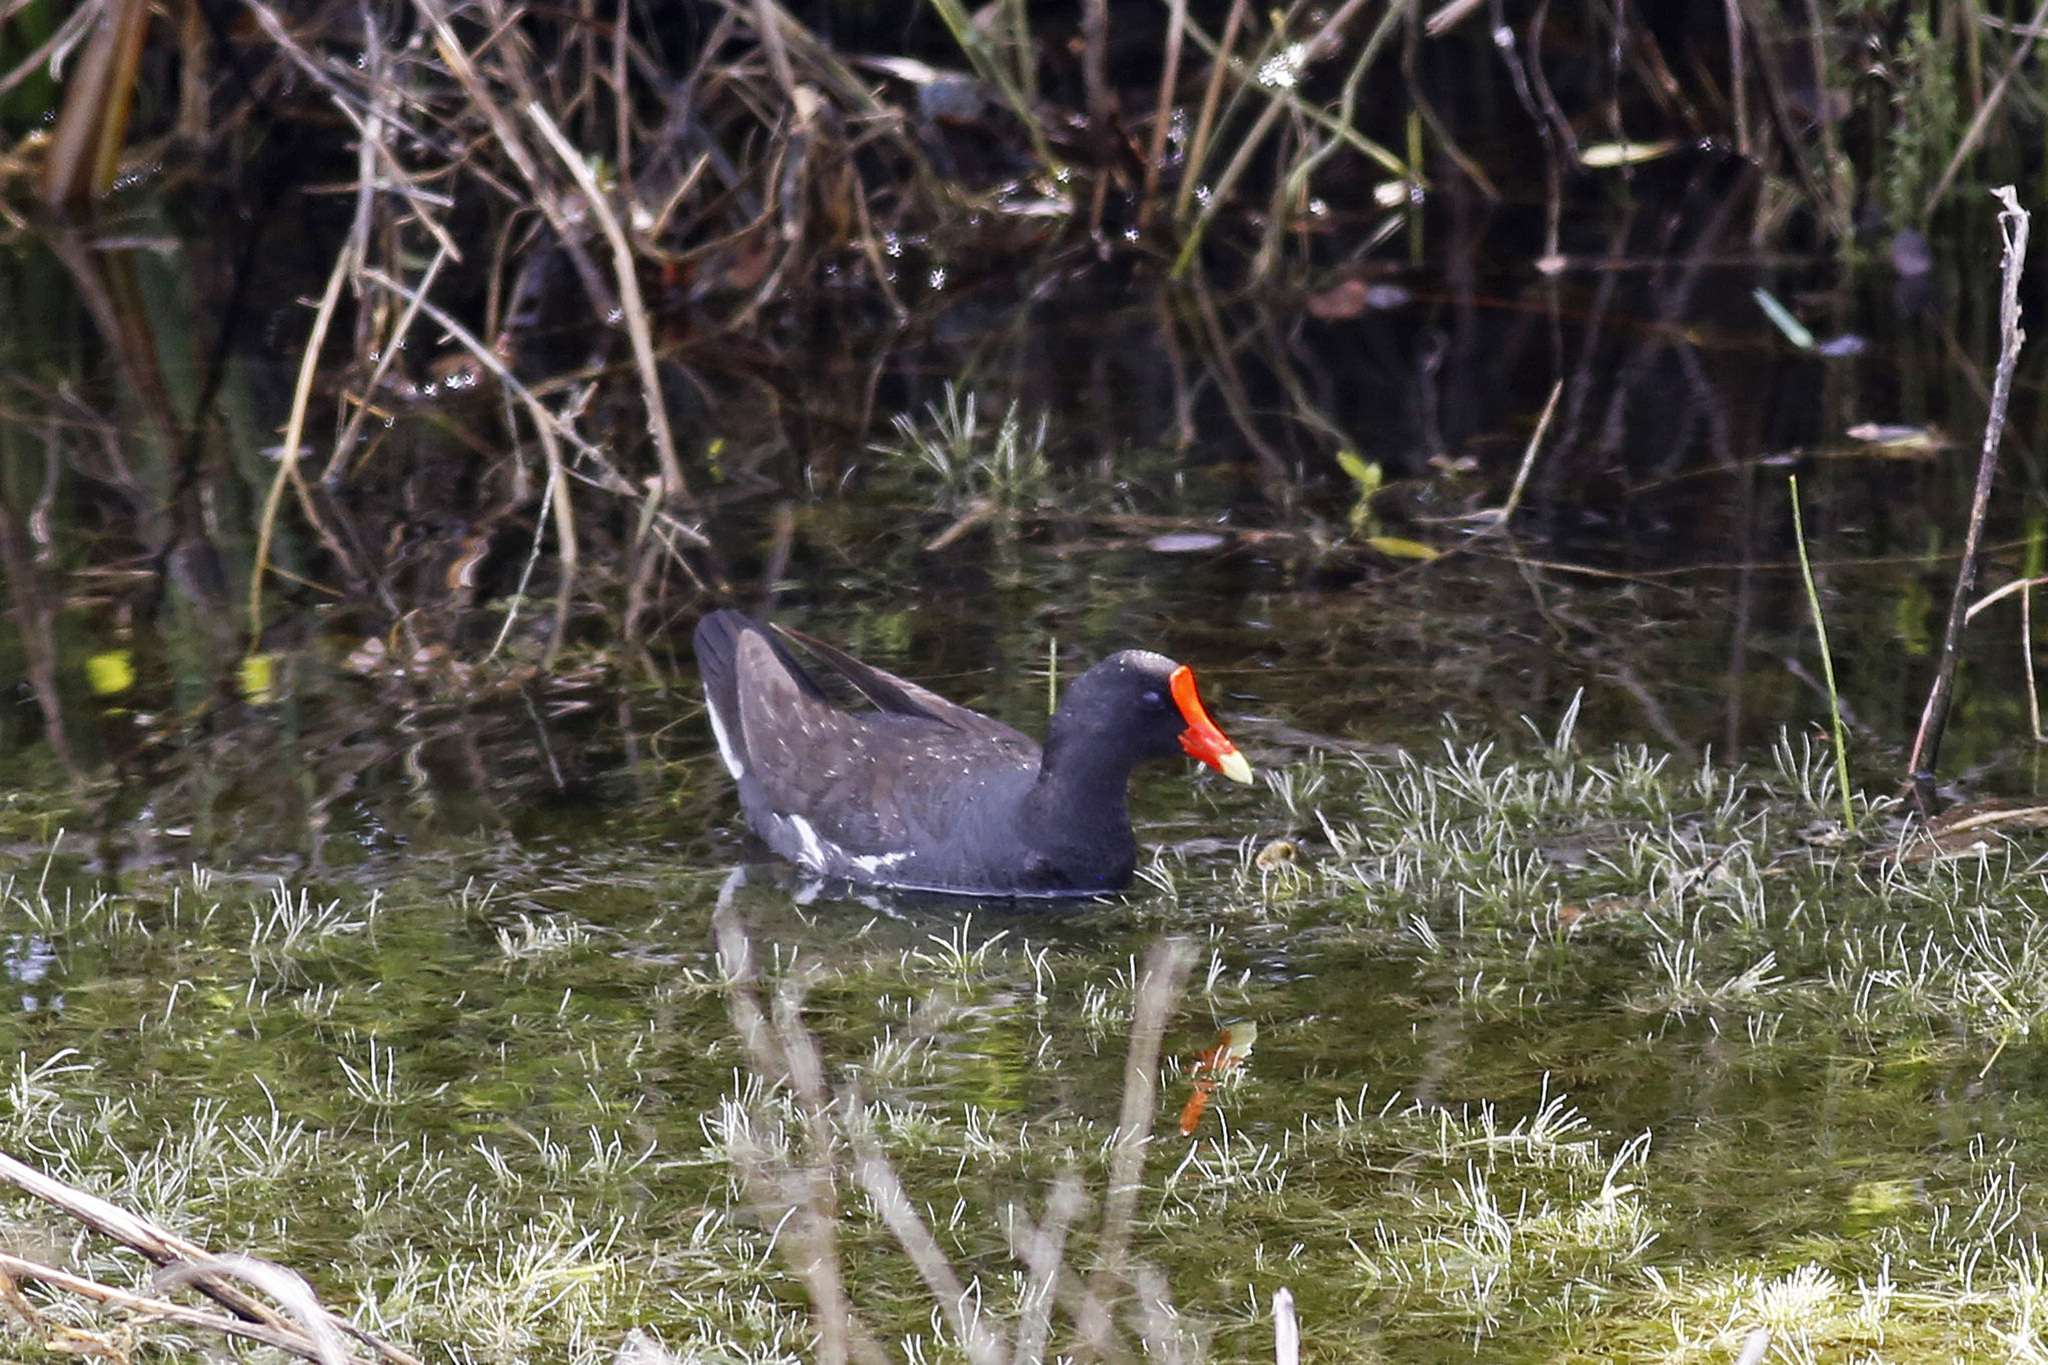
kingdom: Animalia
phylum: Chordata
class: Aves
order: Gruiformes
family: Rallidae
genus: Gallinula
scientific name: Gallinula chloropus
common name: Common moorhen
